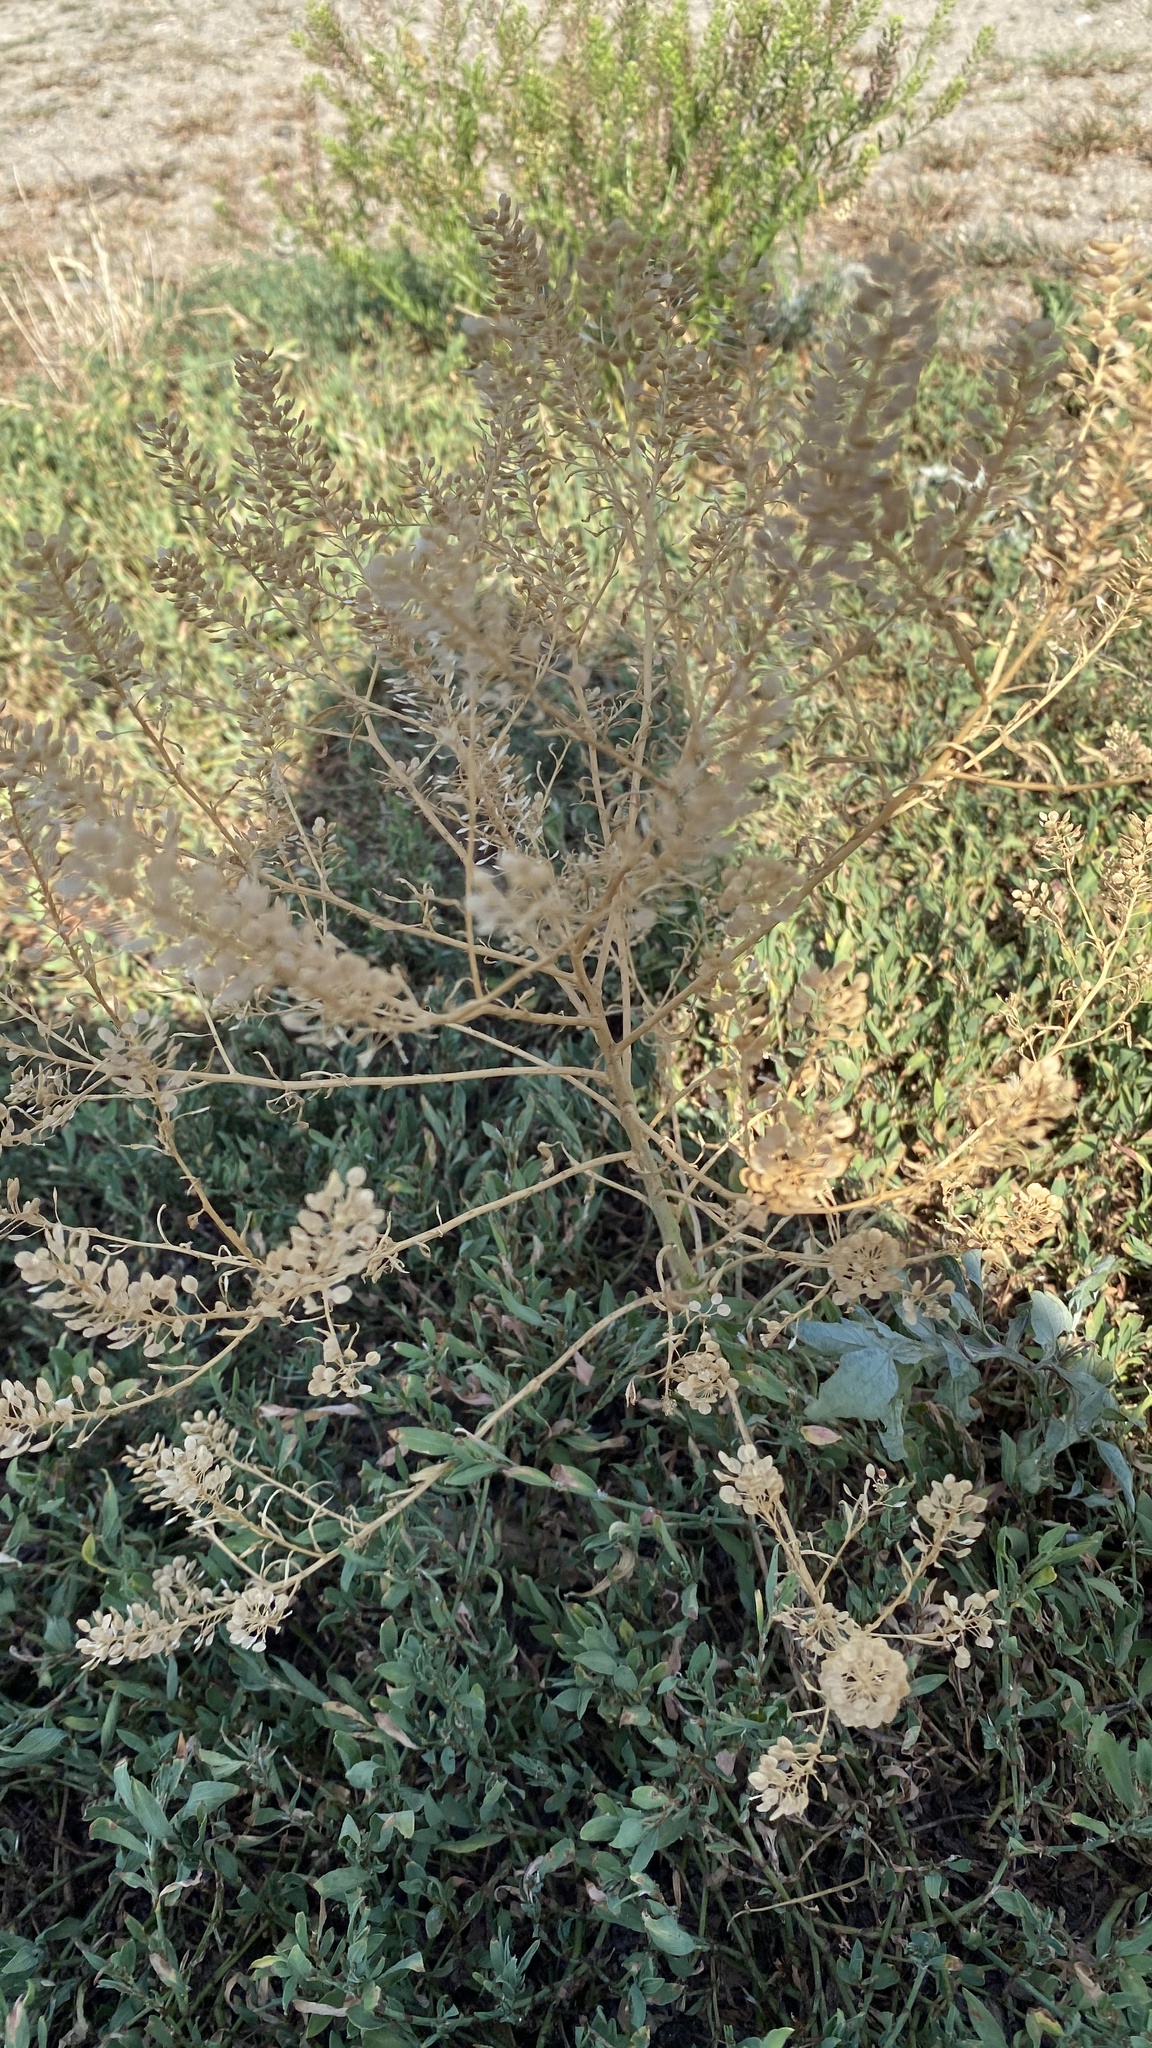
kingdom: Plantae
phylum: Tracheophyta
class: Magnoliopsida
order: Brassicales
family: Brassicaceae
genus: Lepidium
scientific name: Lepidium virginicum
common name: Least pepperwort
